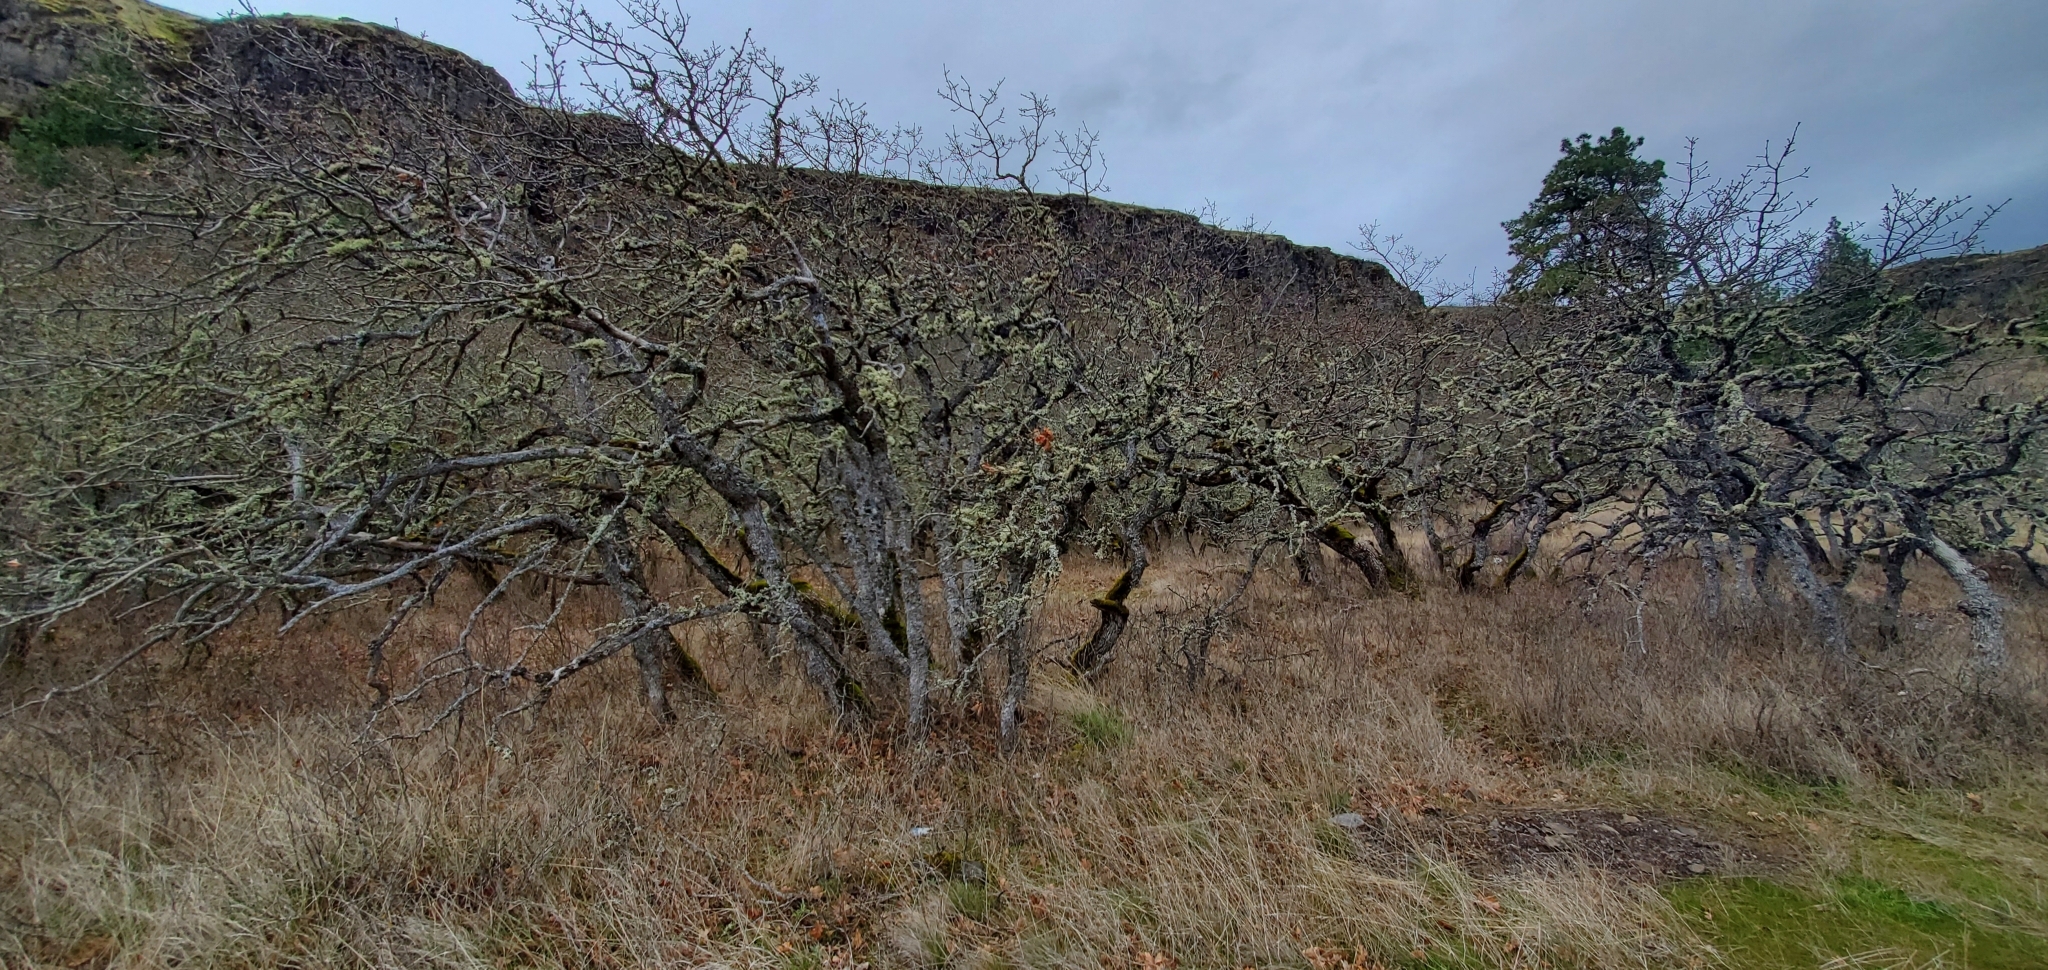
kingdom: Fungi
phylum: Ascomycota
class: Lecanoromycetes
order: Lecanorales
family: Parmeliaceae
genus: Evernia
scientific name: Evernia prunastri
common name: Oak moss
